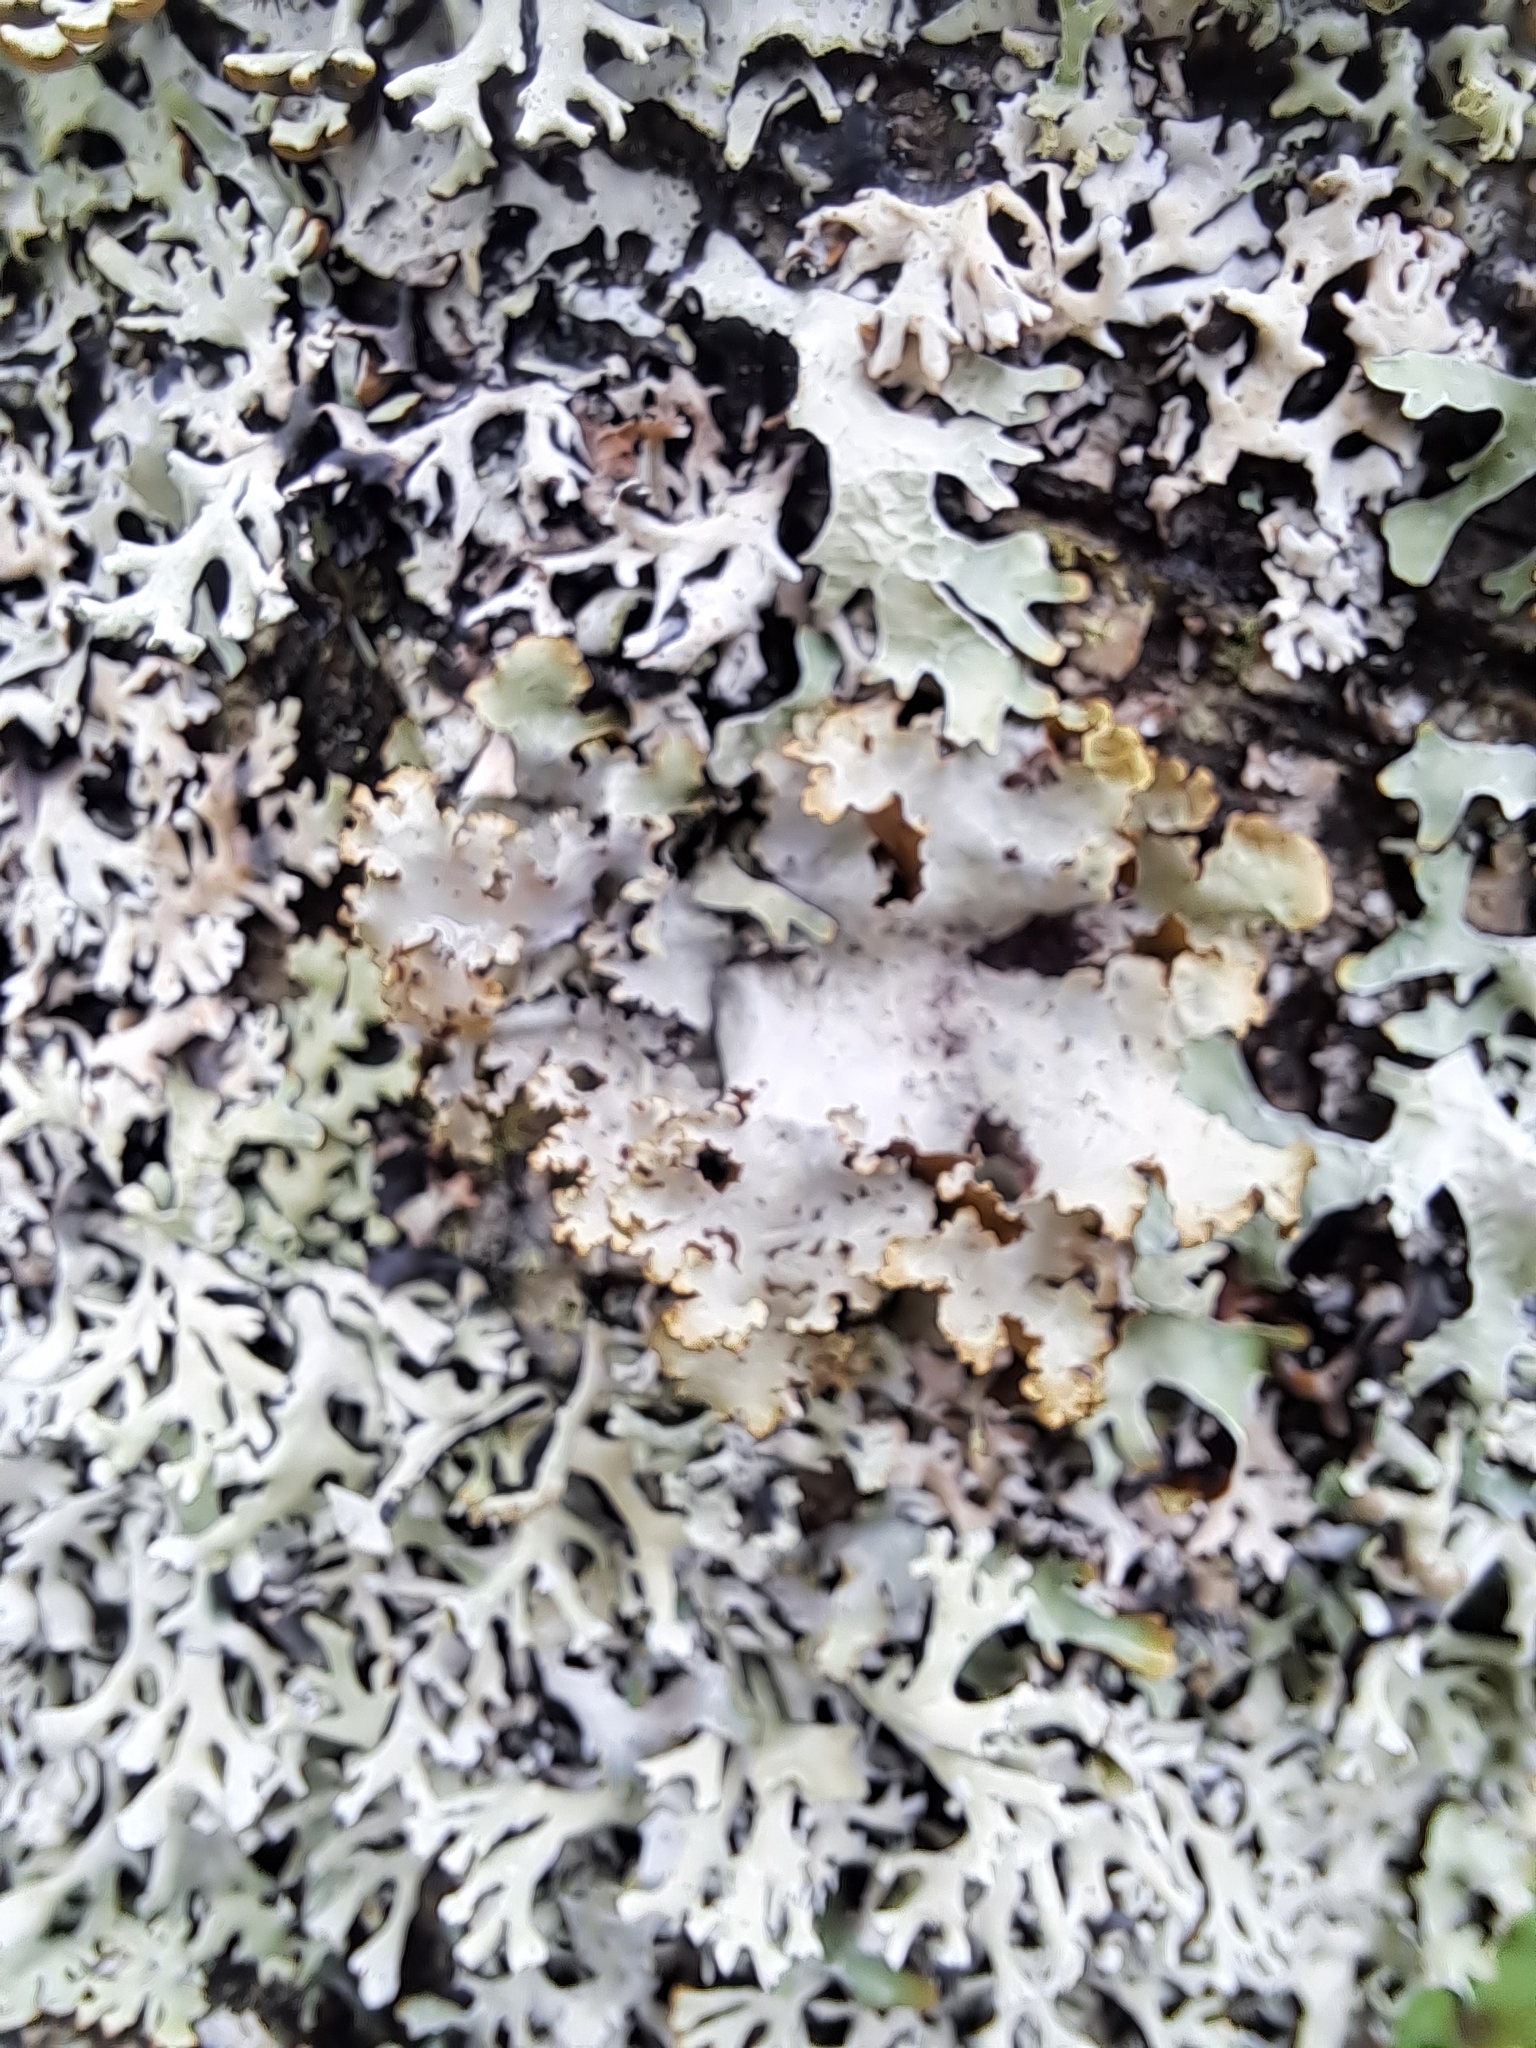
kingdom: Fungi
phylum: Ascomycota
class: Lecanoromycetes
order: Lecanorales
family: Parmeliaceae
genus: Platismatia
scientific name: Platismatia glauca
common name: Varied rag lichen
